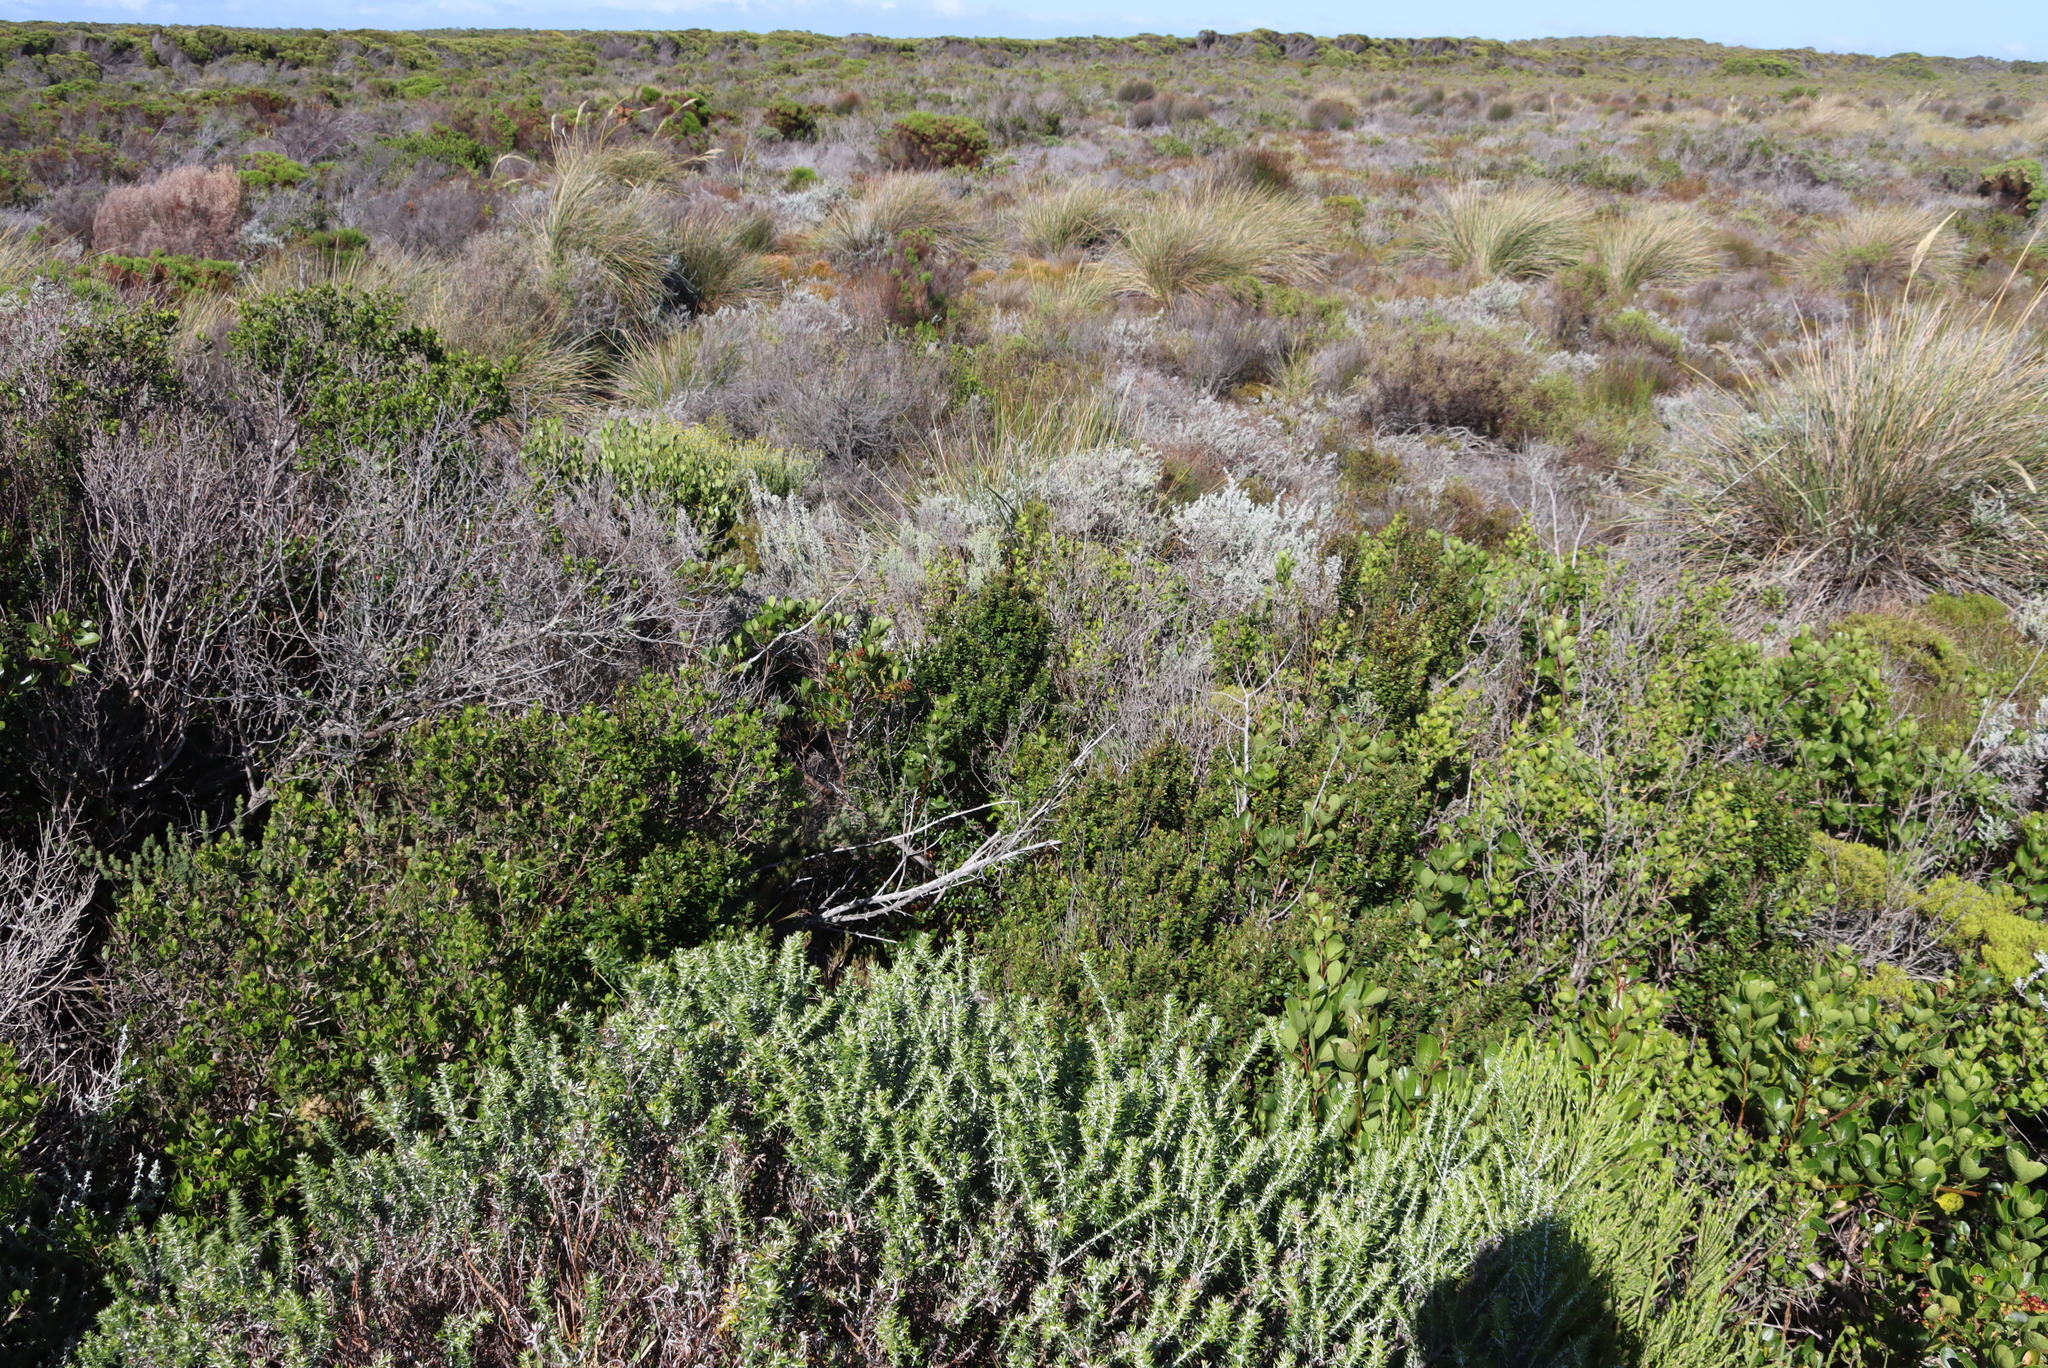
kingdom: Plantae
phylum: Tracheophyta
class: Magnoliopsida
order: Ericales
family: Primulaceae
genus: Myrsine
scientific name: Myrsine africana
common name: African-boxwood
